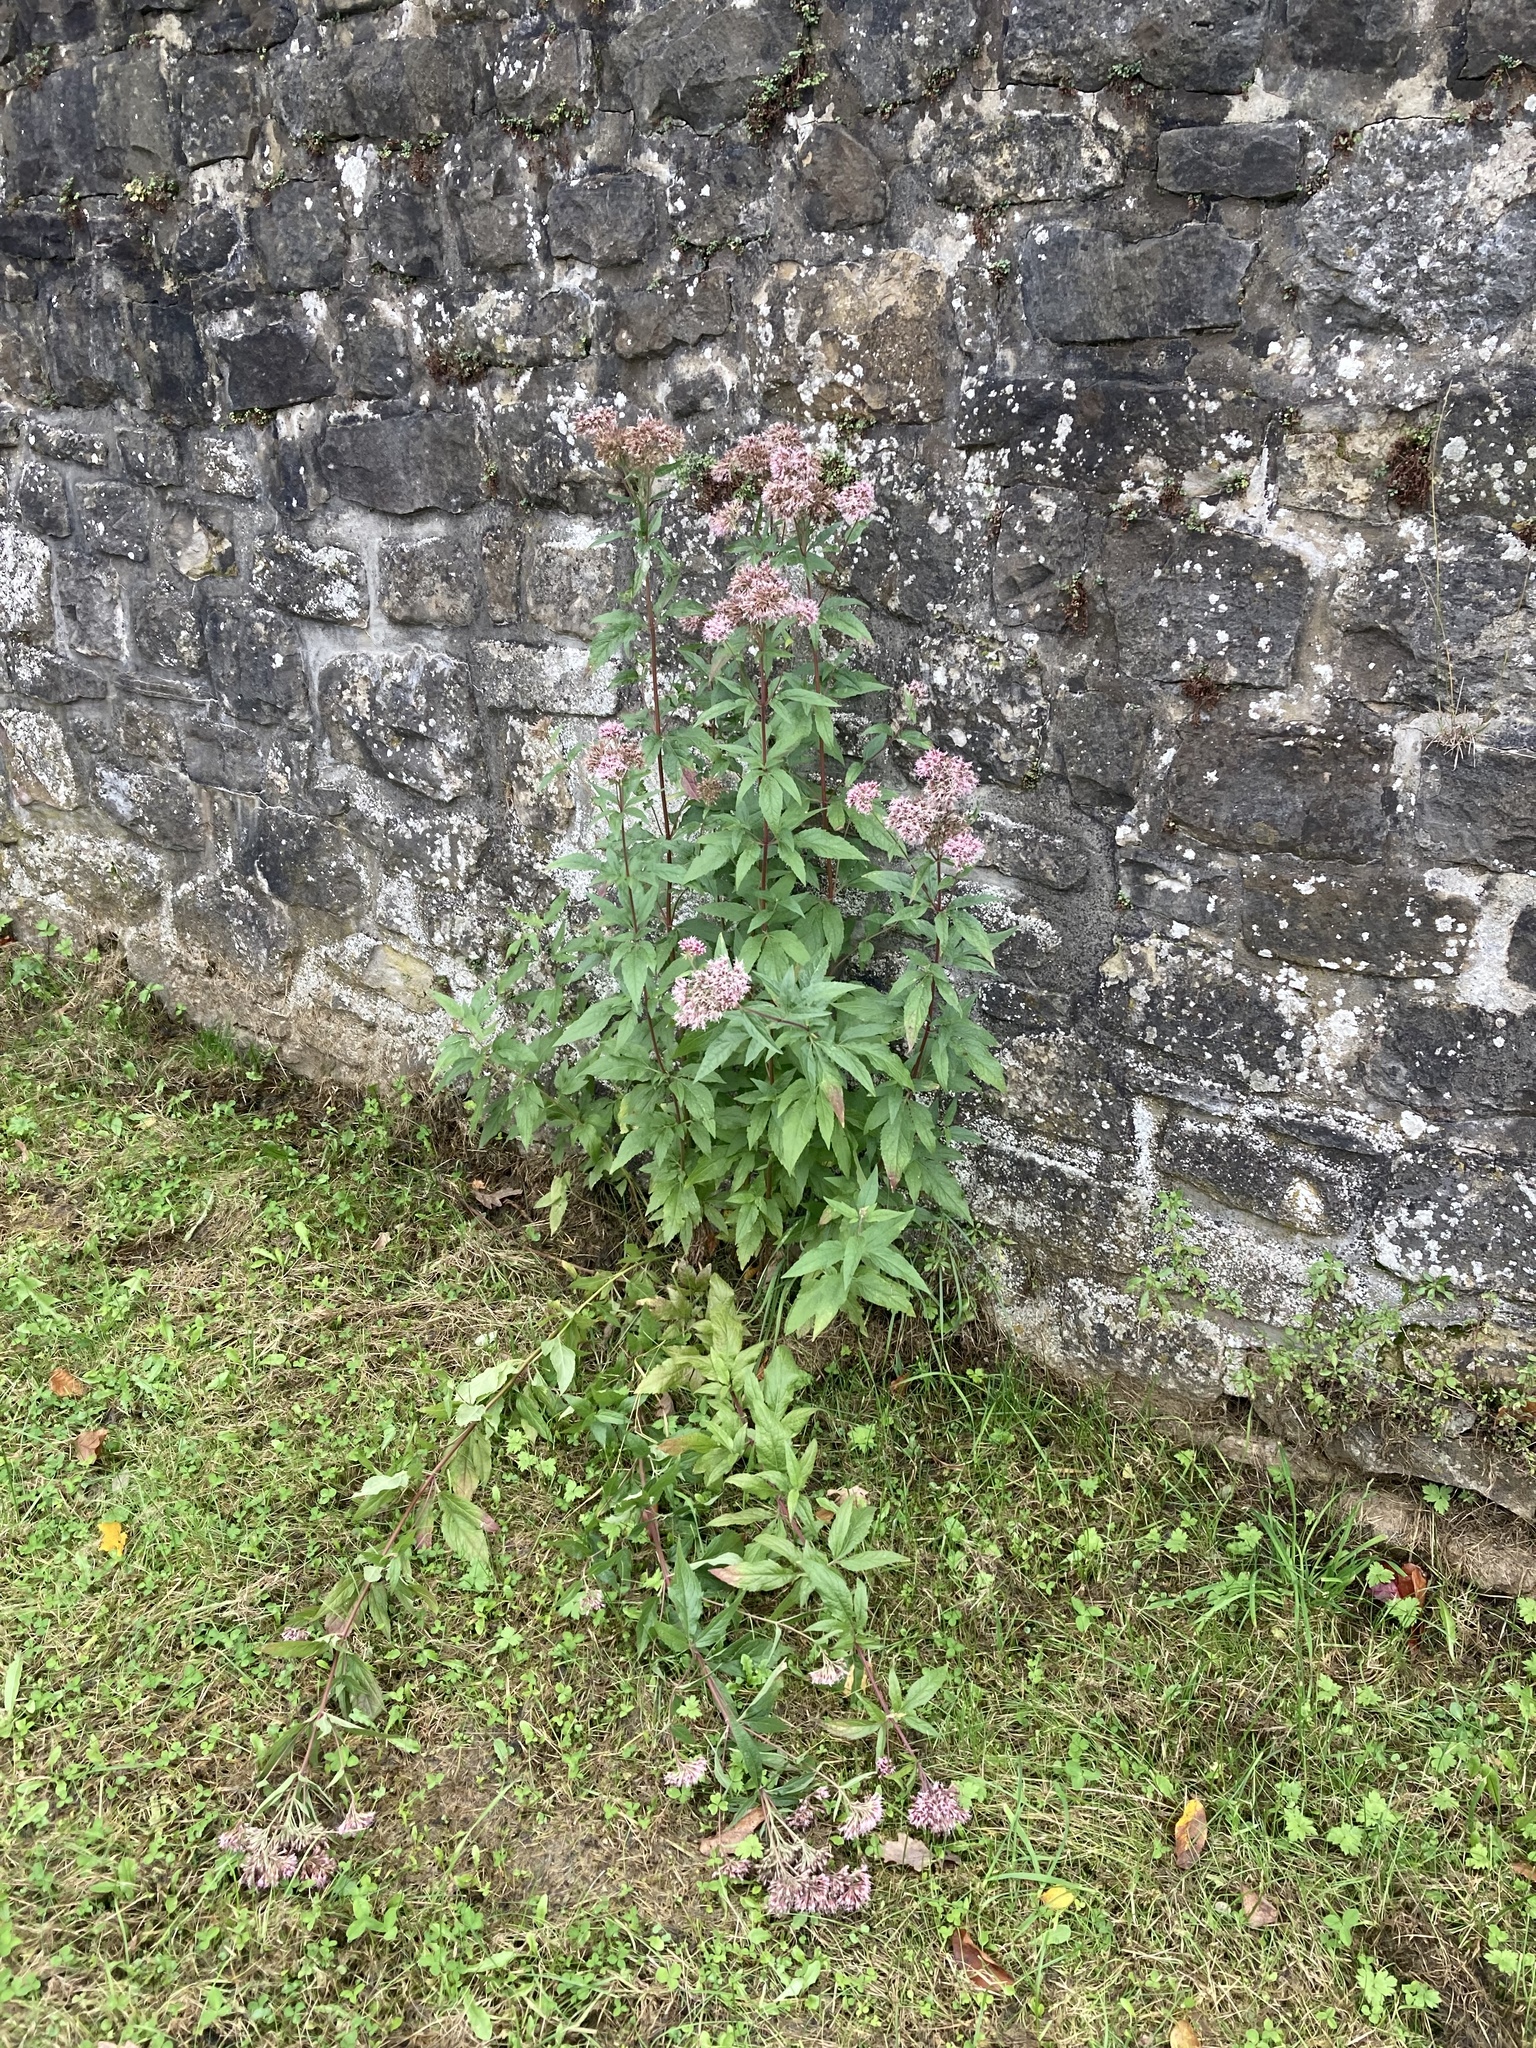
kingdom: Plantae
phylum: Tracheophyta
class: Magnoliopsida
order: Asterales
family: Asteraceae
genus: Eupatorium
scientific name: Eupatorium cannabinum
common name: Hemp-agrimony
